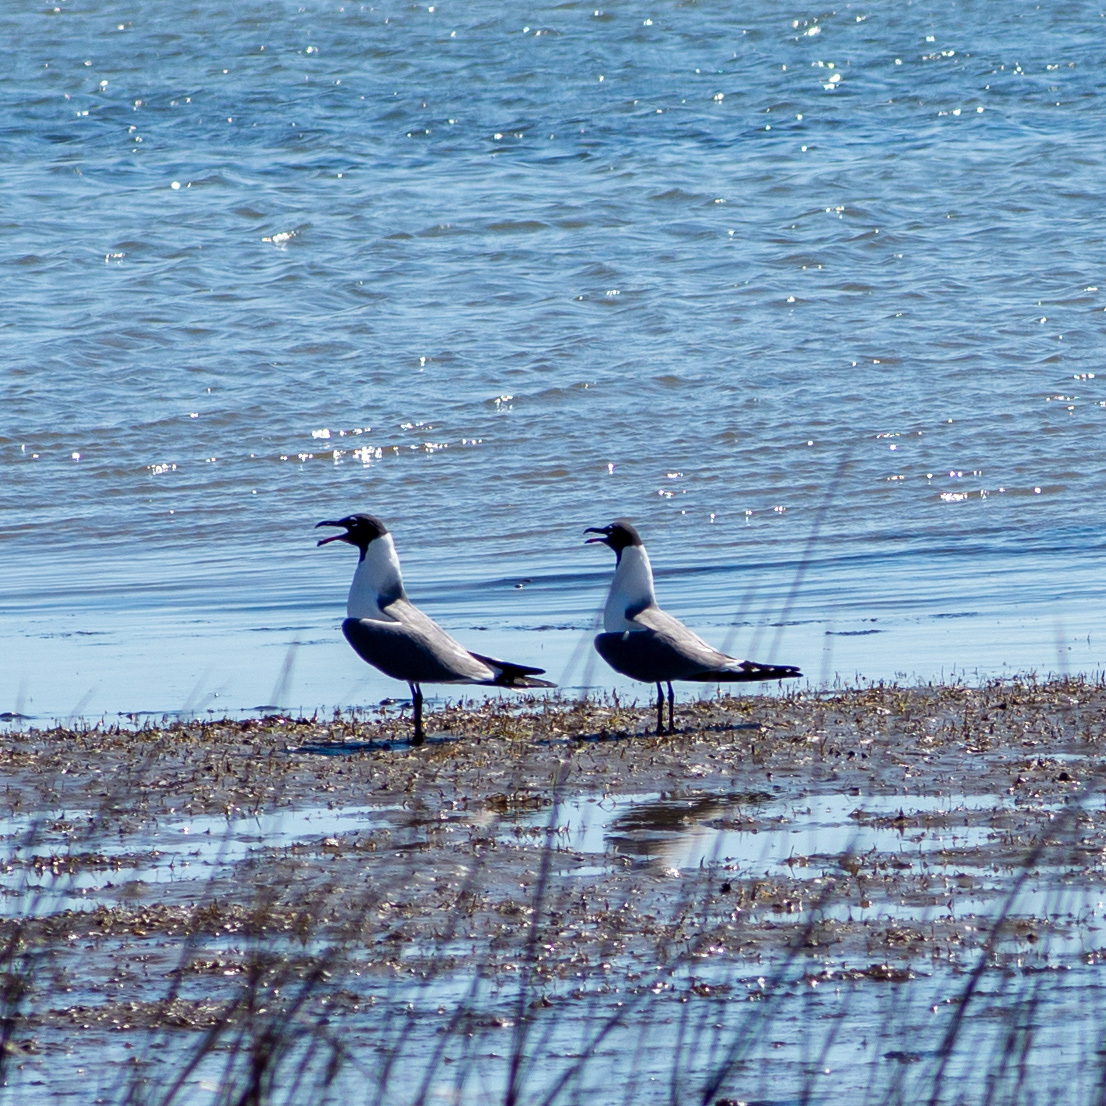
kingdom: Animalia
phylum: Chordata
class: Aves
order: Charadriiformes
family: Laridae
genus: Leucophaeus
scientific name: Leucophaeus atricilla
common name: Laughing gull
